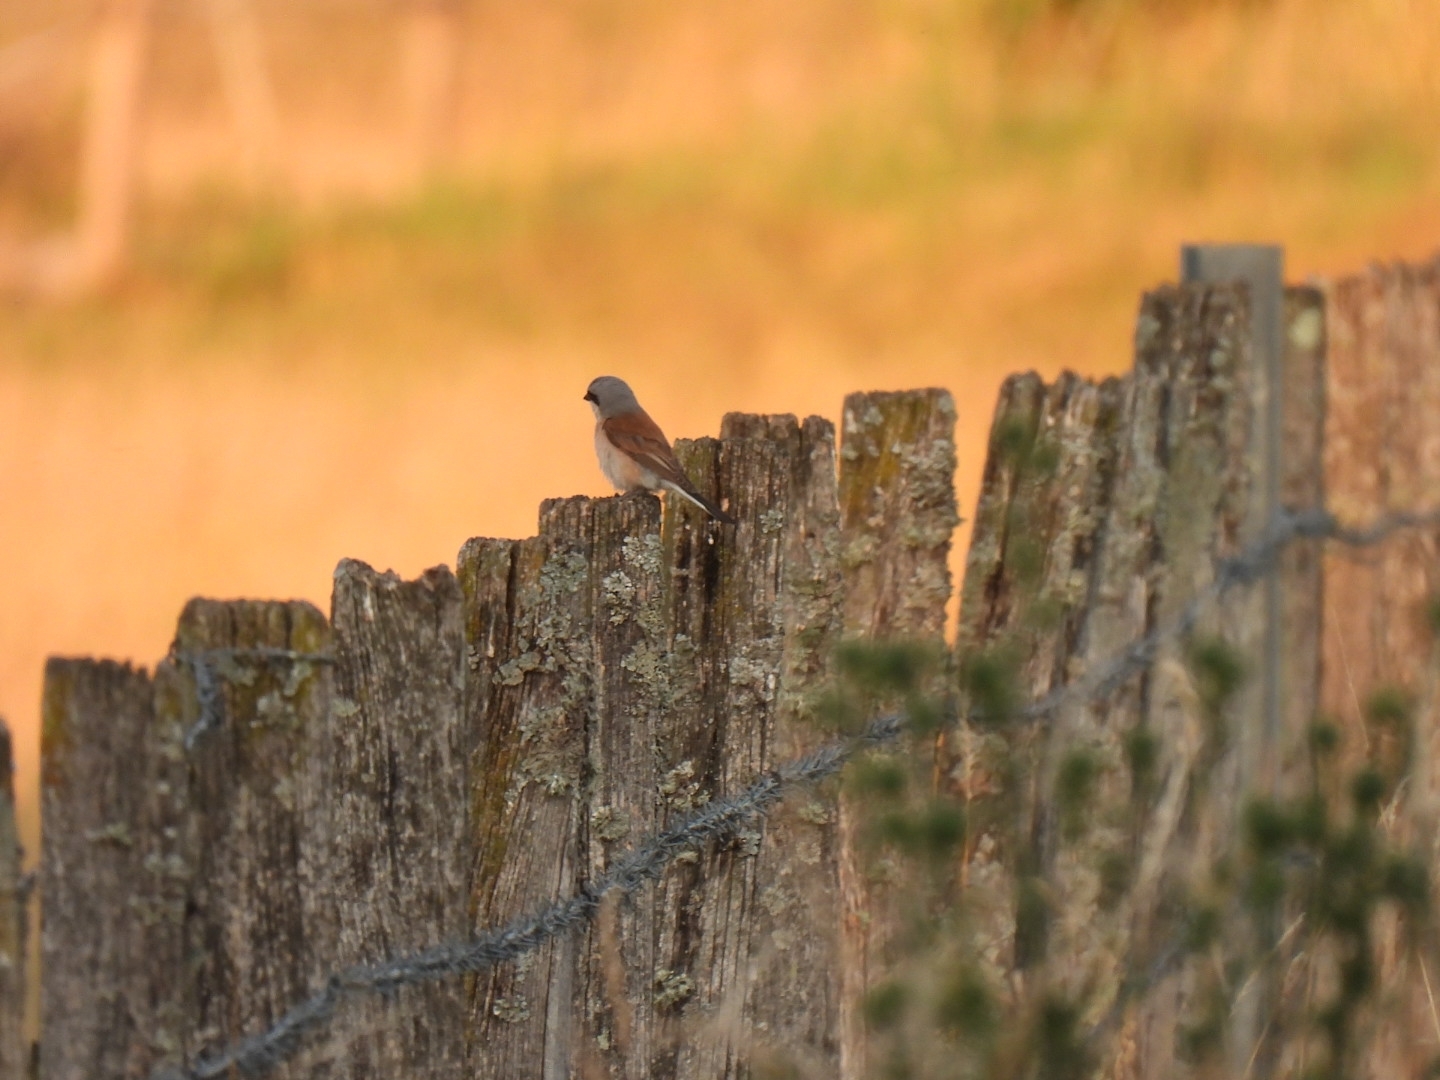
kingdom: Animalia
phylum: Chordata
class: Aves
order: Passeriformes
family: Laniidae
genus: Lanius
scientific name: Lanius collurio
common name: Red-backed shrike
